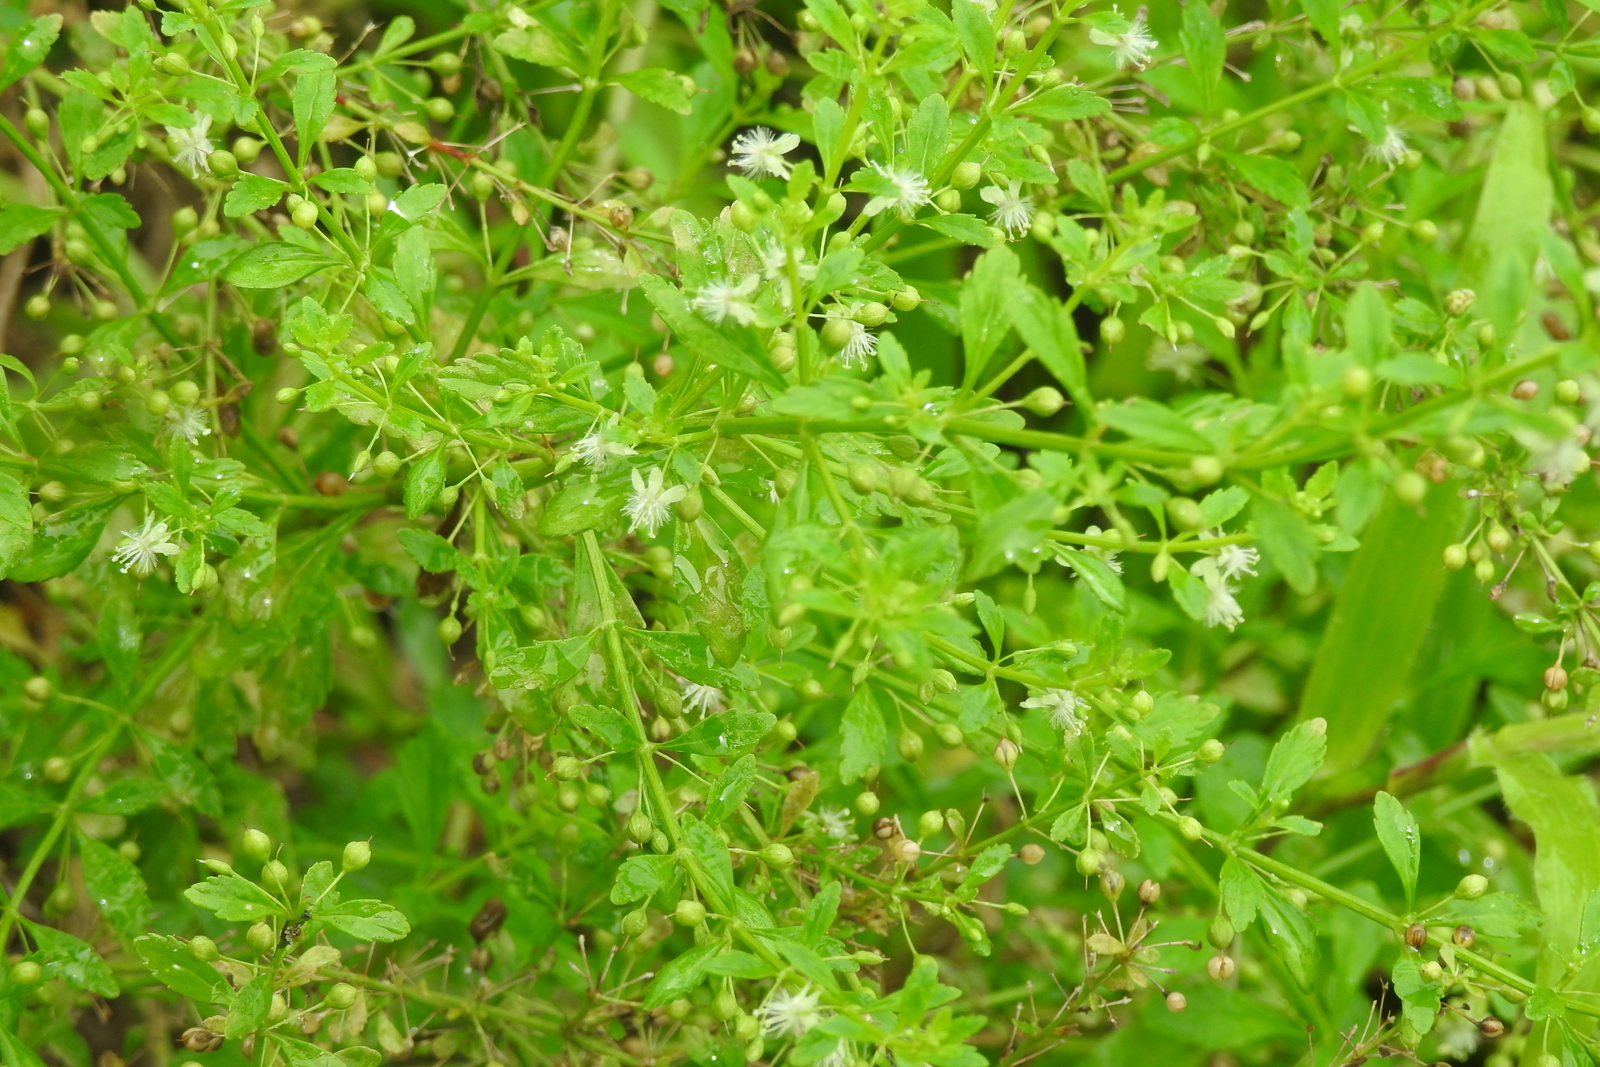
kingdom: Plantae
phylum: Tracheophyta
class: Magnoliopsida
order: Lamiales
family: Plantaginaceae
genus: Scoparia
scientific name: Scoparia dulcis
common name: Scoparia-weed
